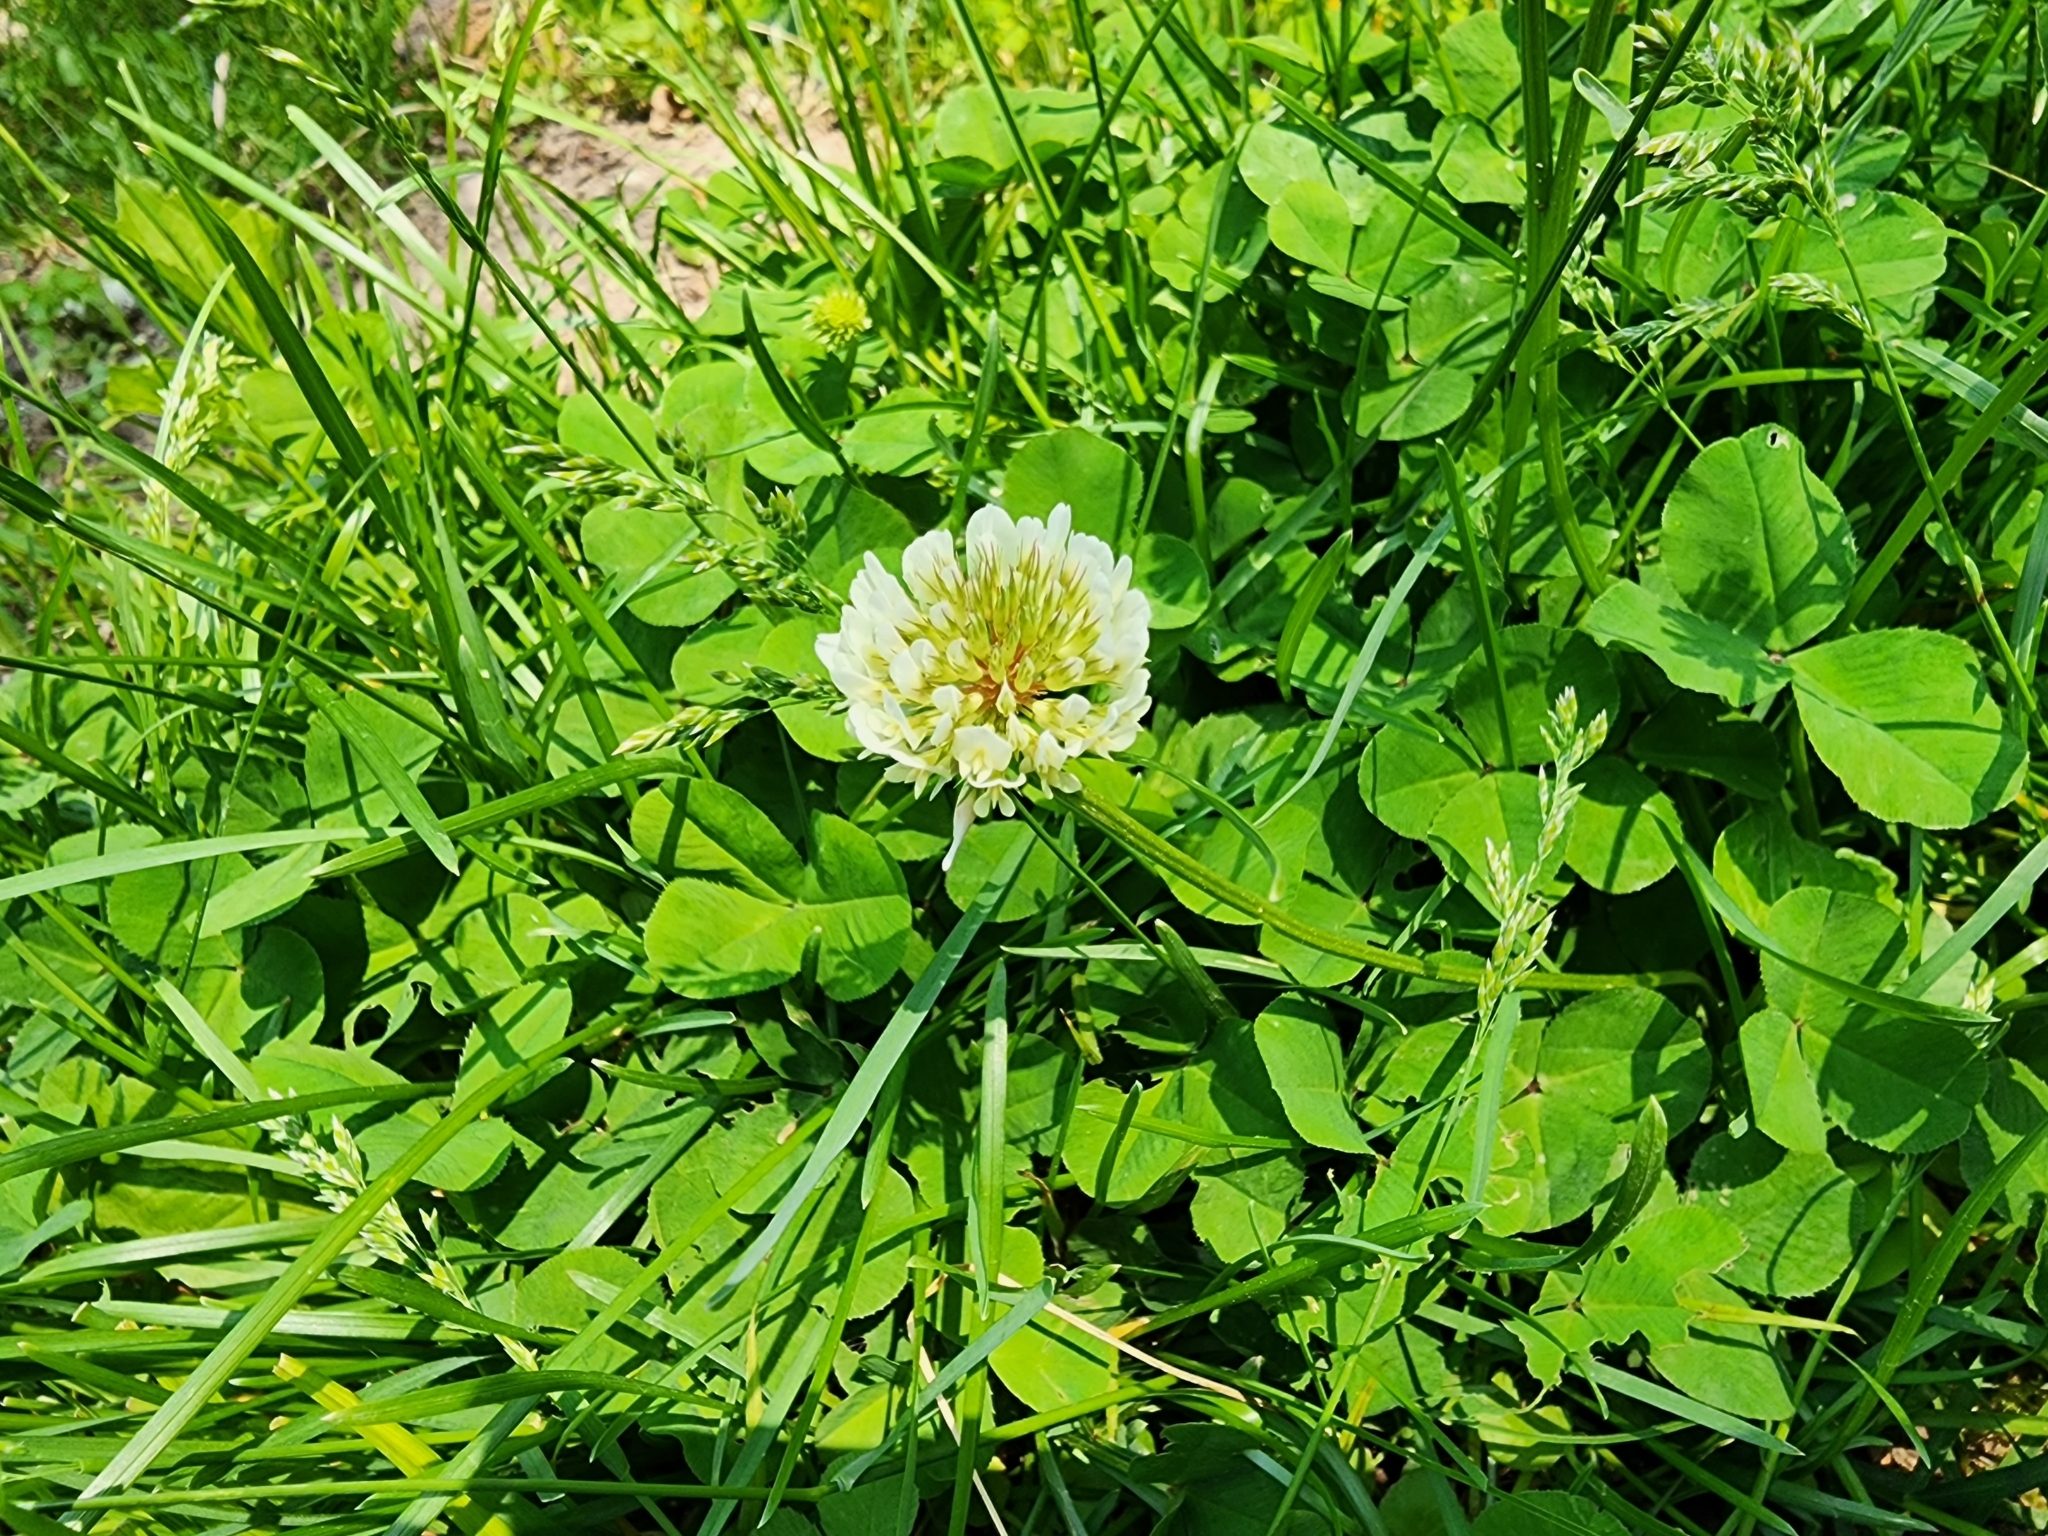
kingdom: Plantae
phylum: Tracheophyta
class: Magnoliopsida
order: Fabales
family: Fabaceae
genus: Trifolium
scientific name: Trifolium repens
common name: White clover
